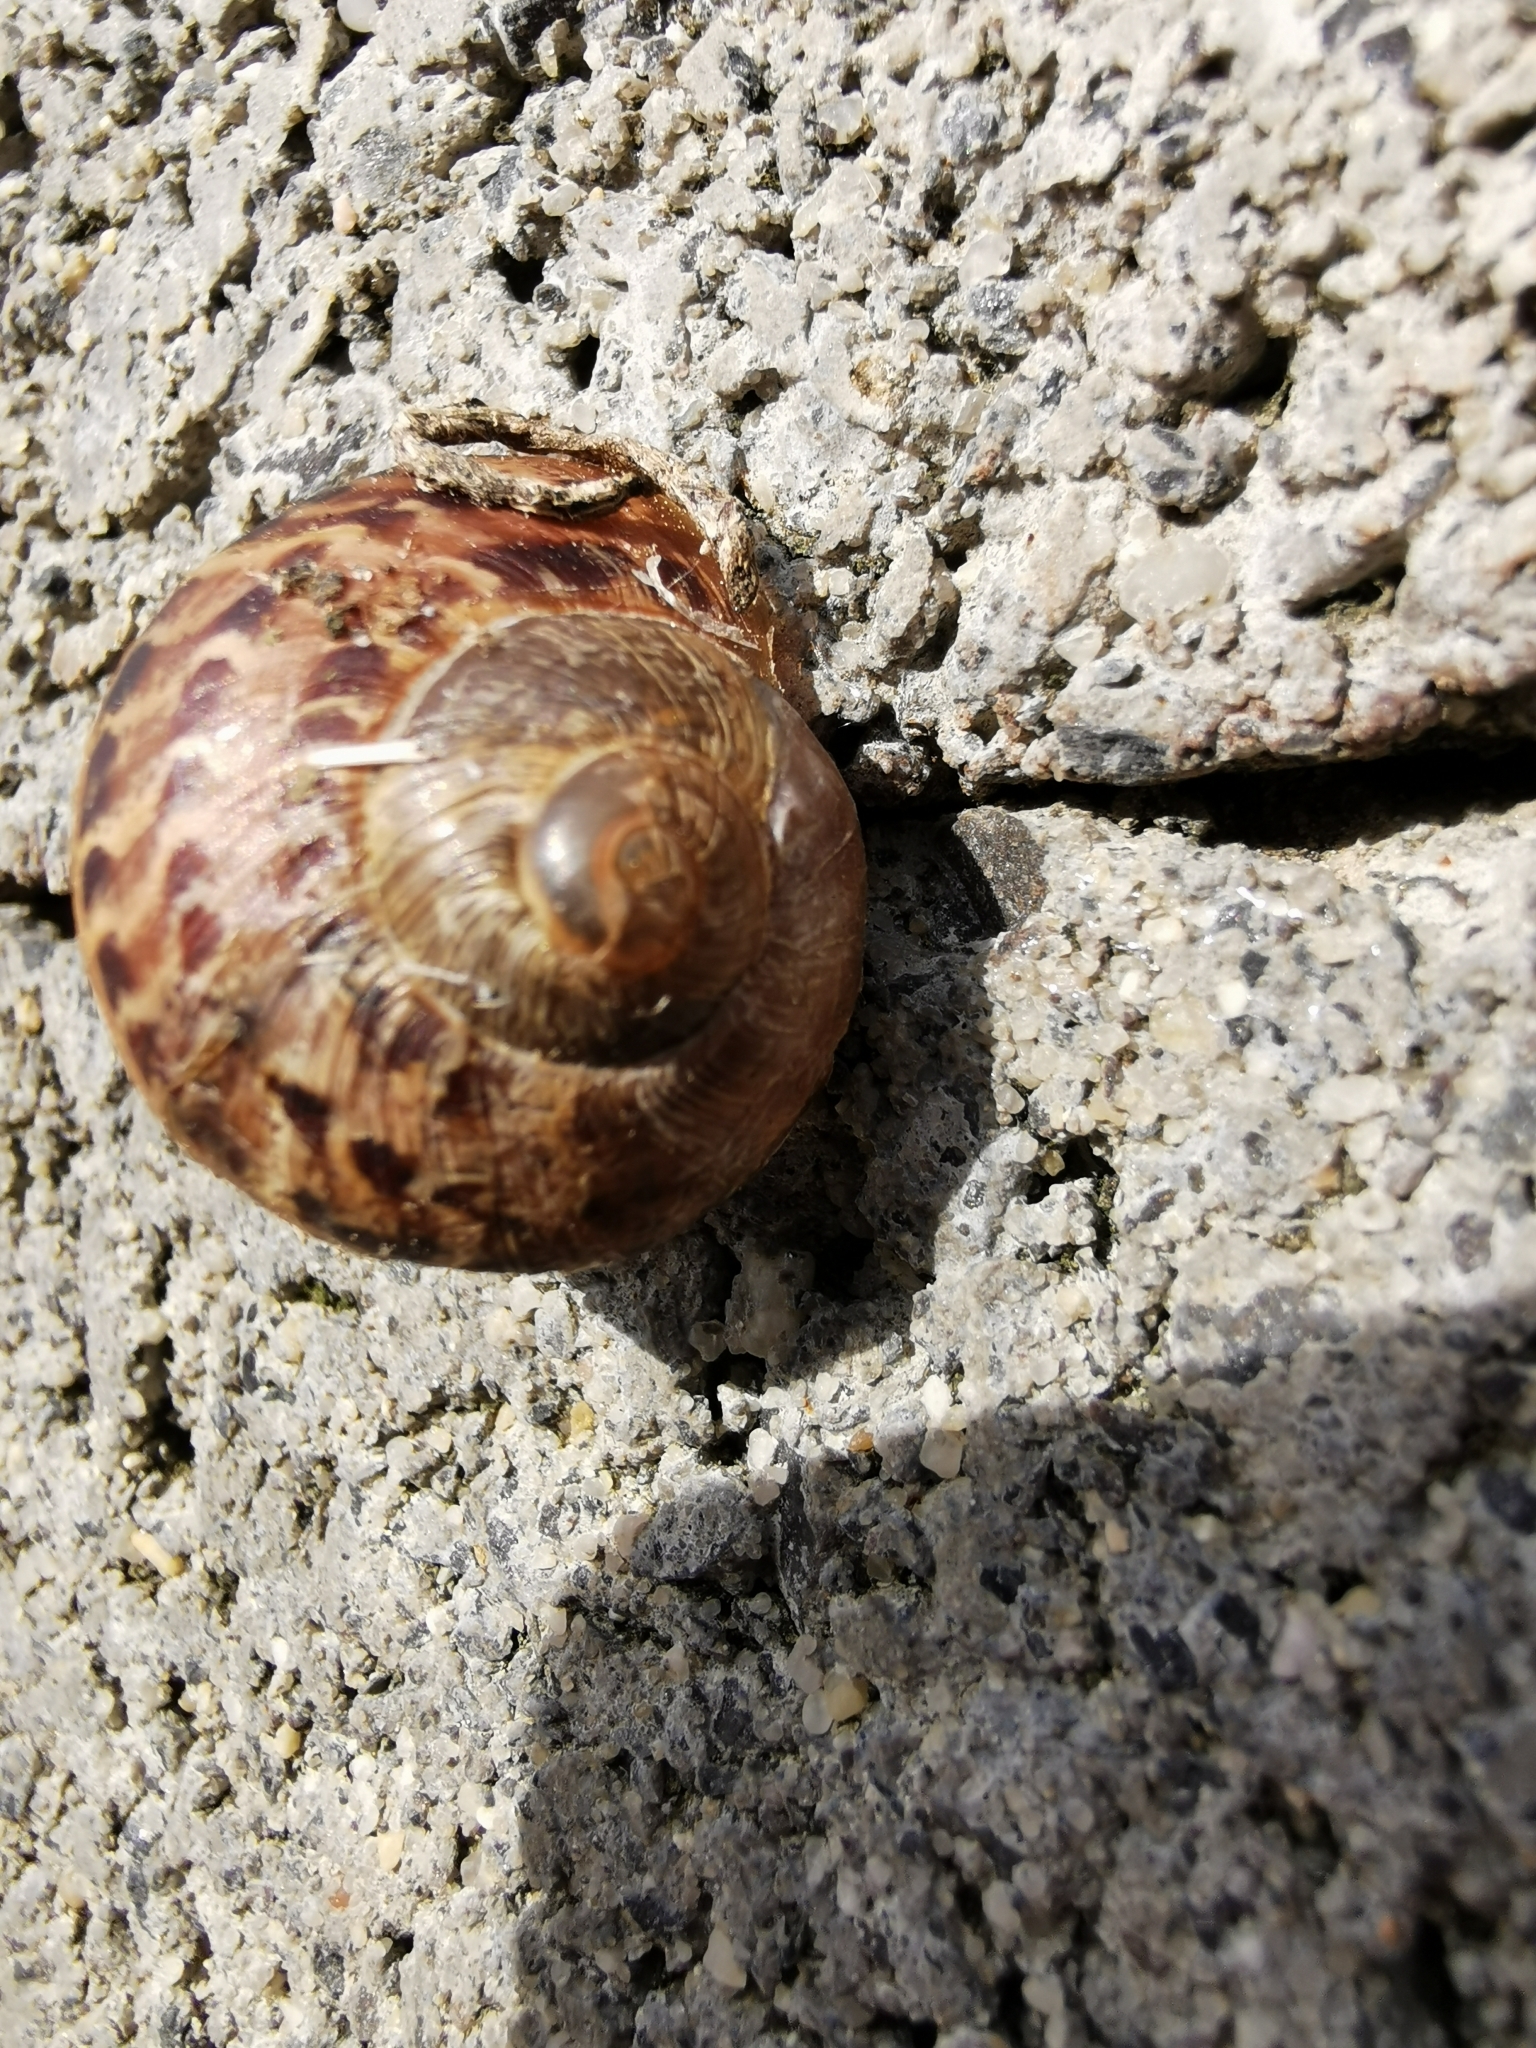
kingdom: Animalia
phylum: Mollusca
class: Gastropoda
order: Stylommatophora
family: Helicidae
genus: Cornu
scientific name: Cornu aspersum
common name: Brown garden snail
